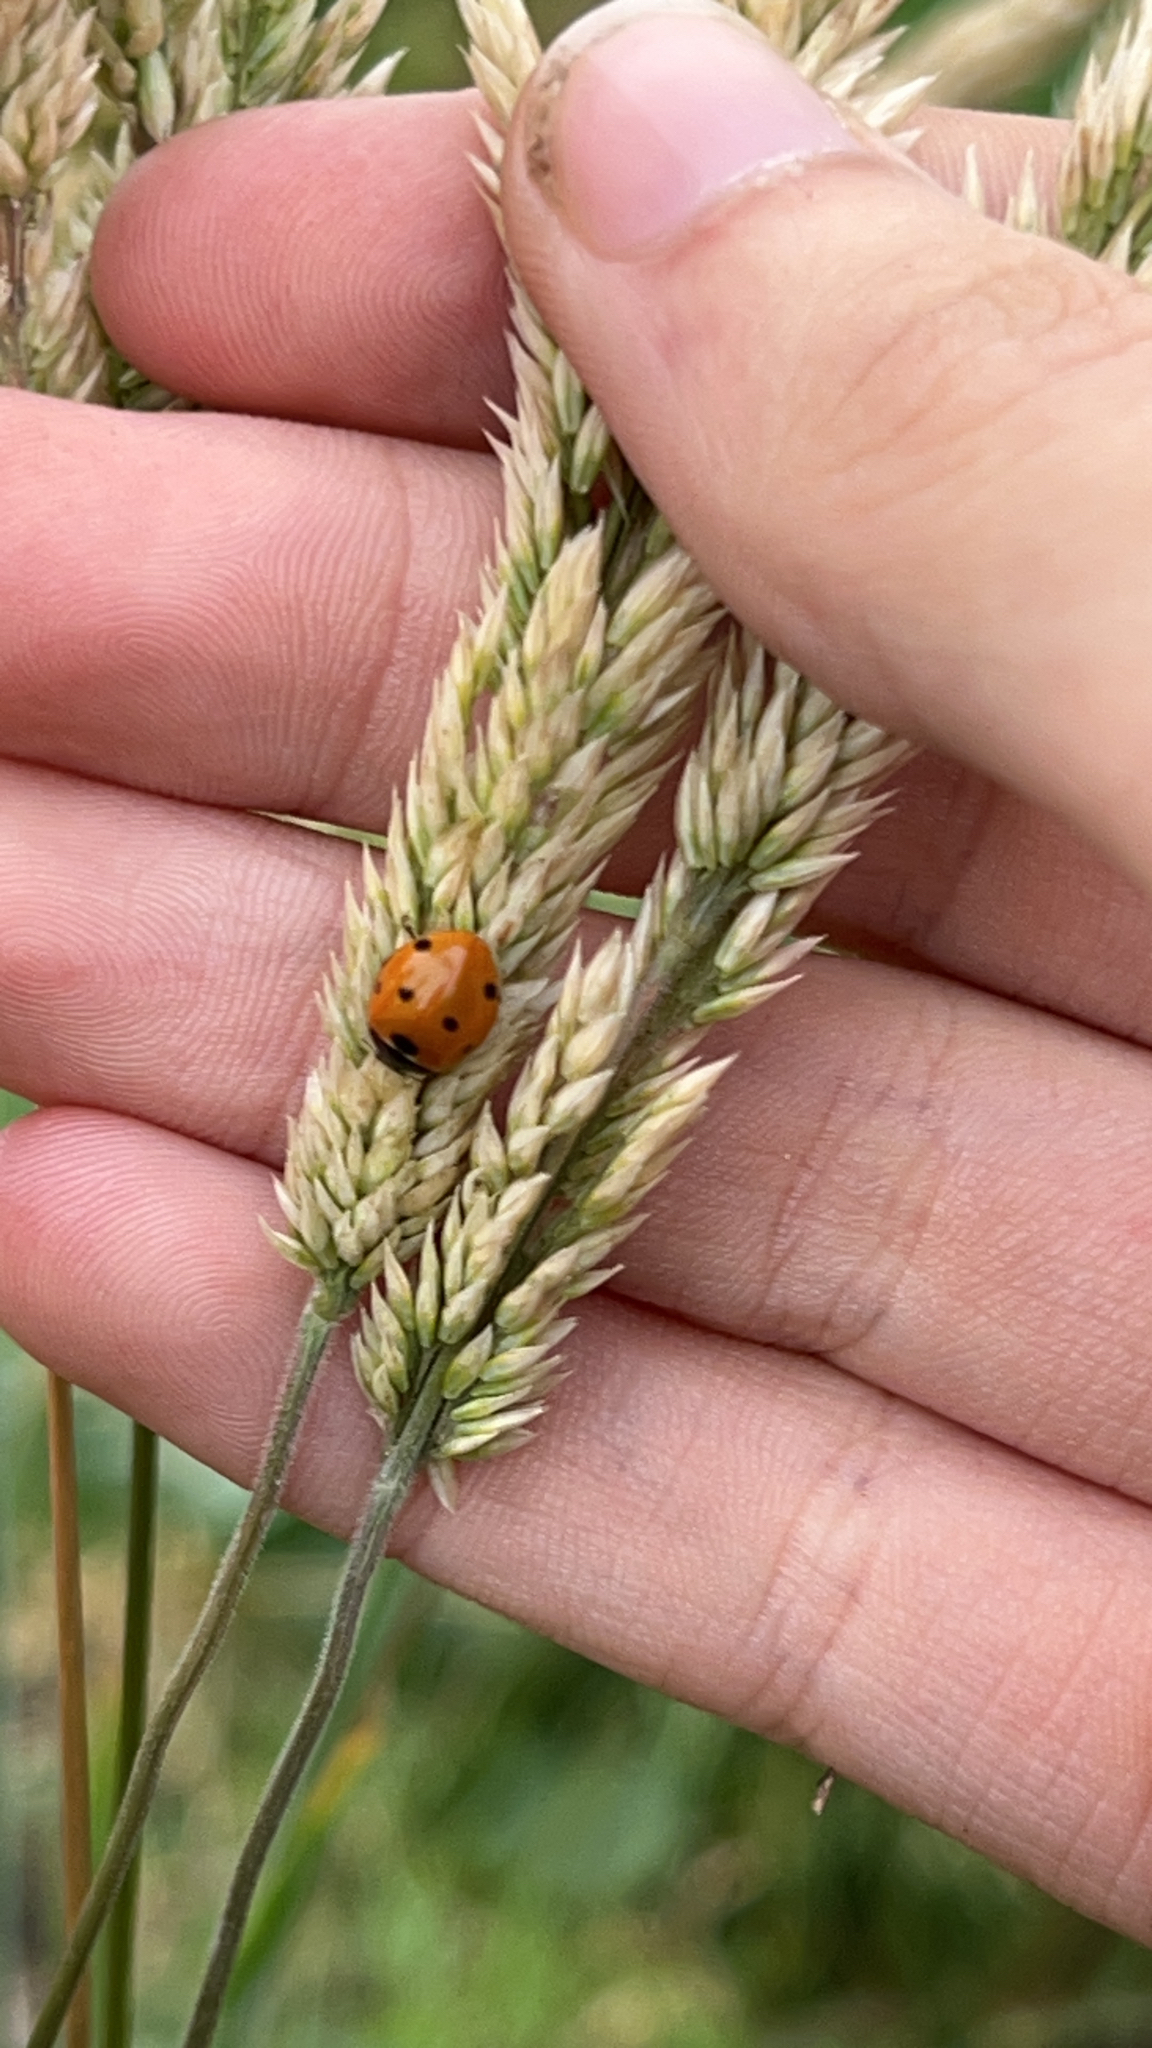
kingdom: Animalia
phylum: Arthropoda
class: Insecta
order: Coleoptera
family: Coccinellidae
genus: Coccinella
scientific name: Coccinella septempunctata
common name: Sevenspotted lady beetle
